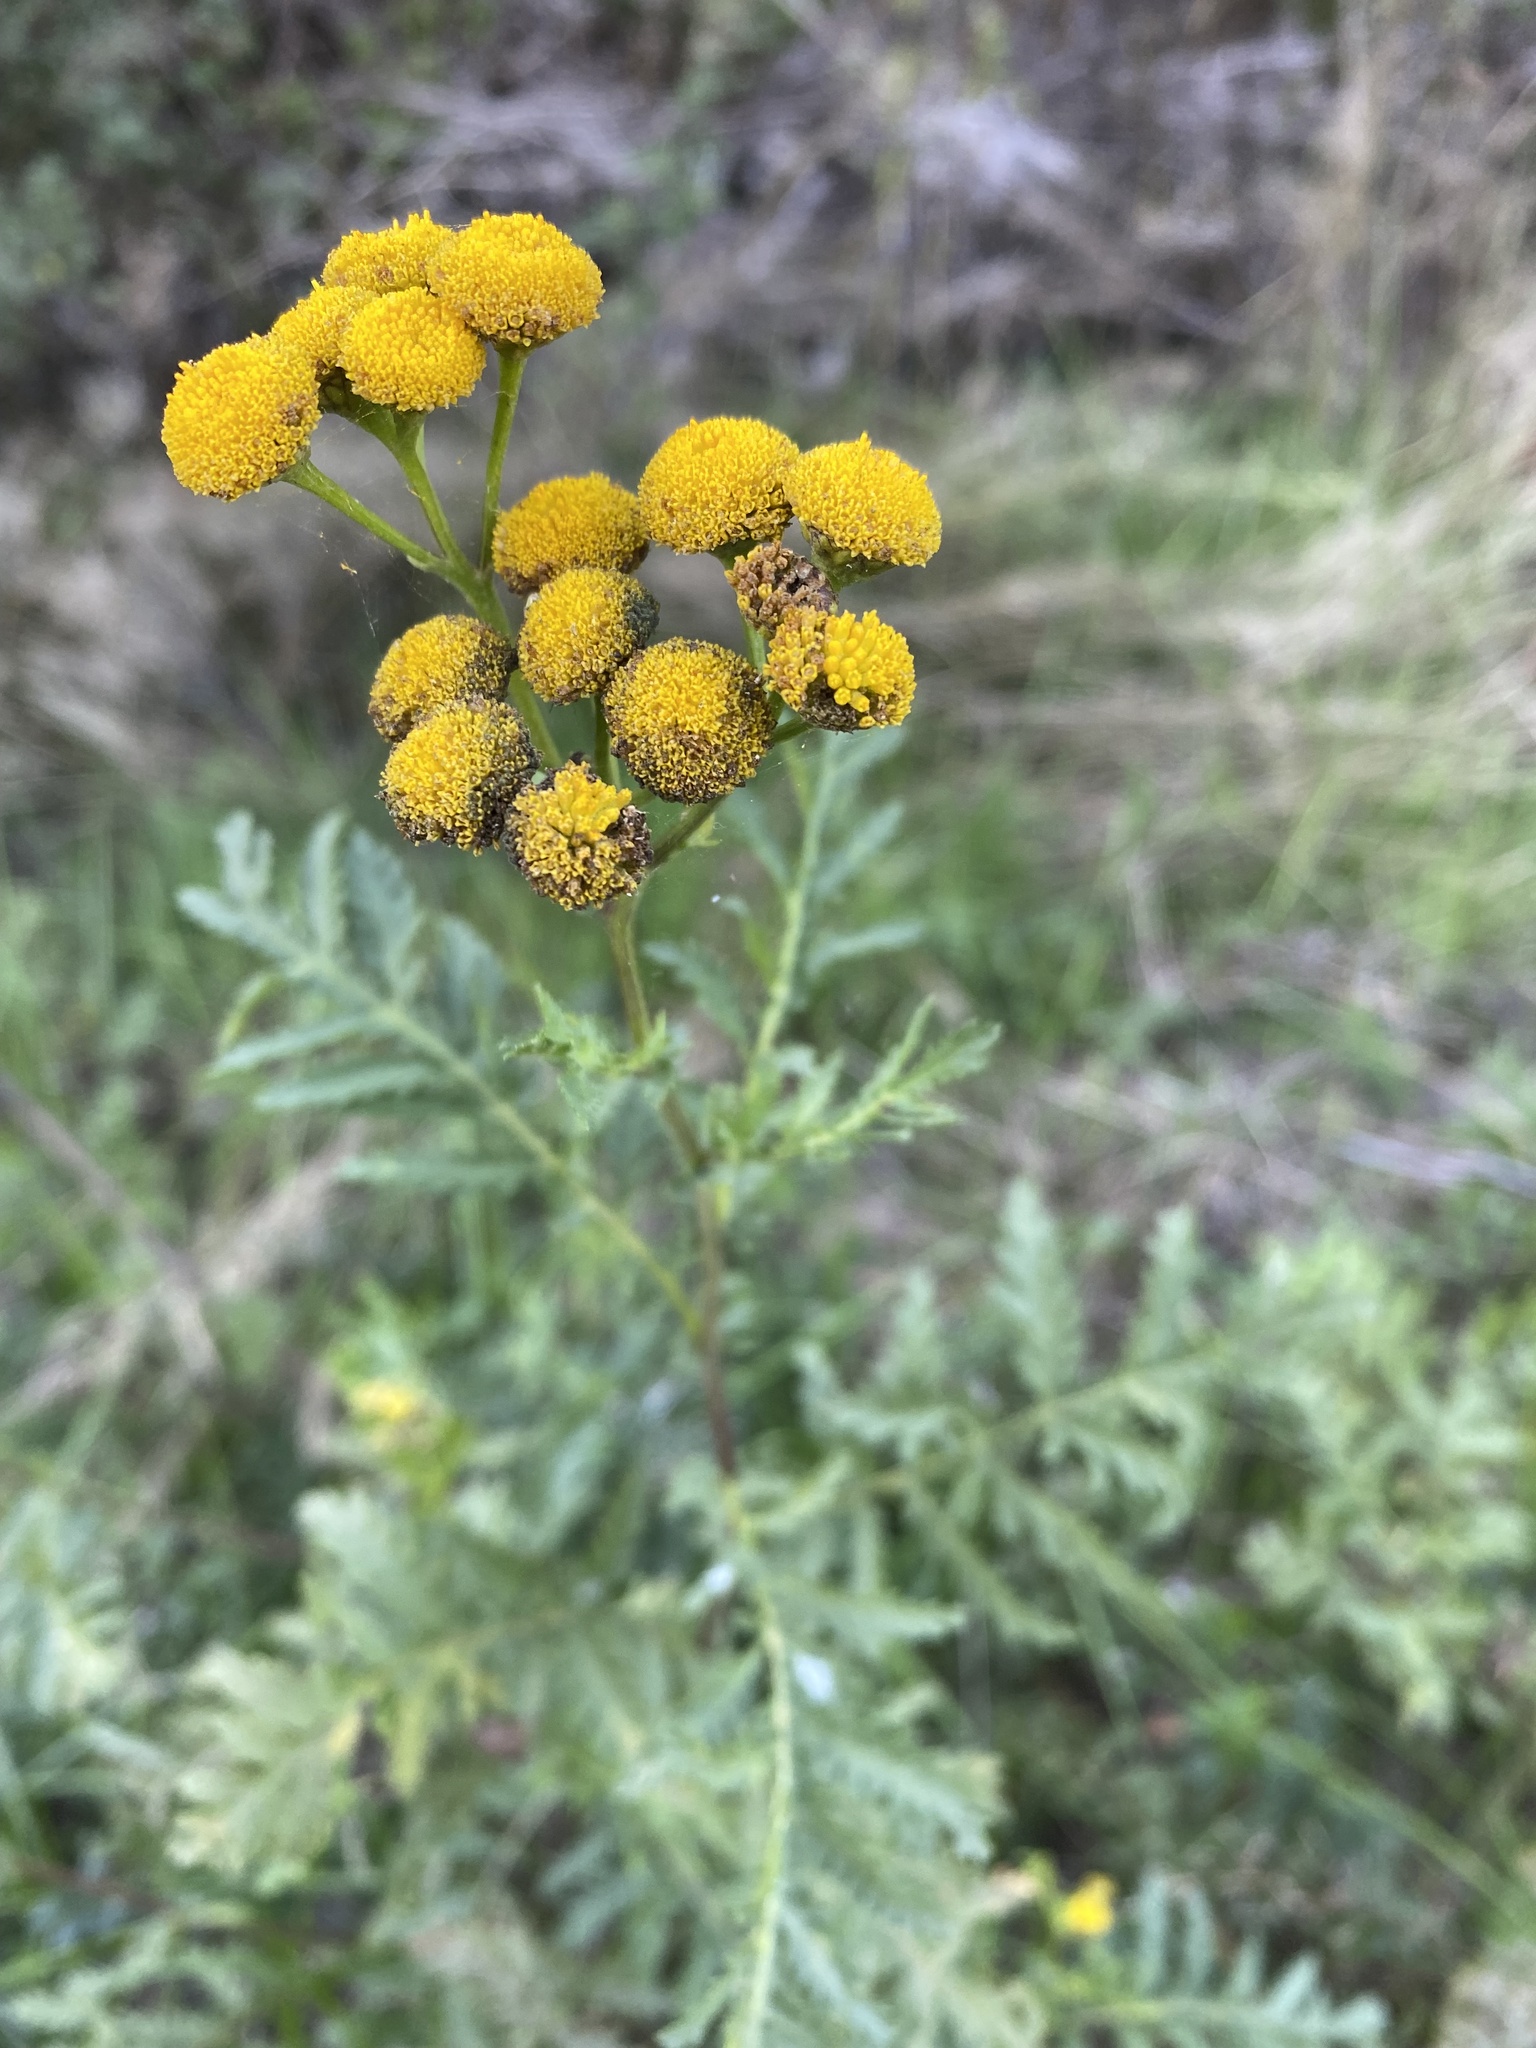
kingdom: Plantae
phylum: Tracheophyta
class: Magnoliopsida
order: Asterales
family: Asteraceae
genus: Tanacetum
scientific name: Tanacetum vulgare
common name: Common tansy
